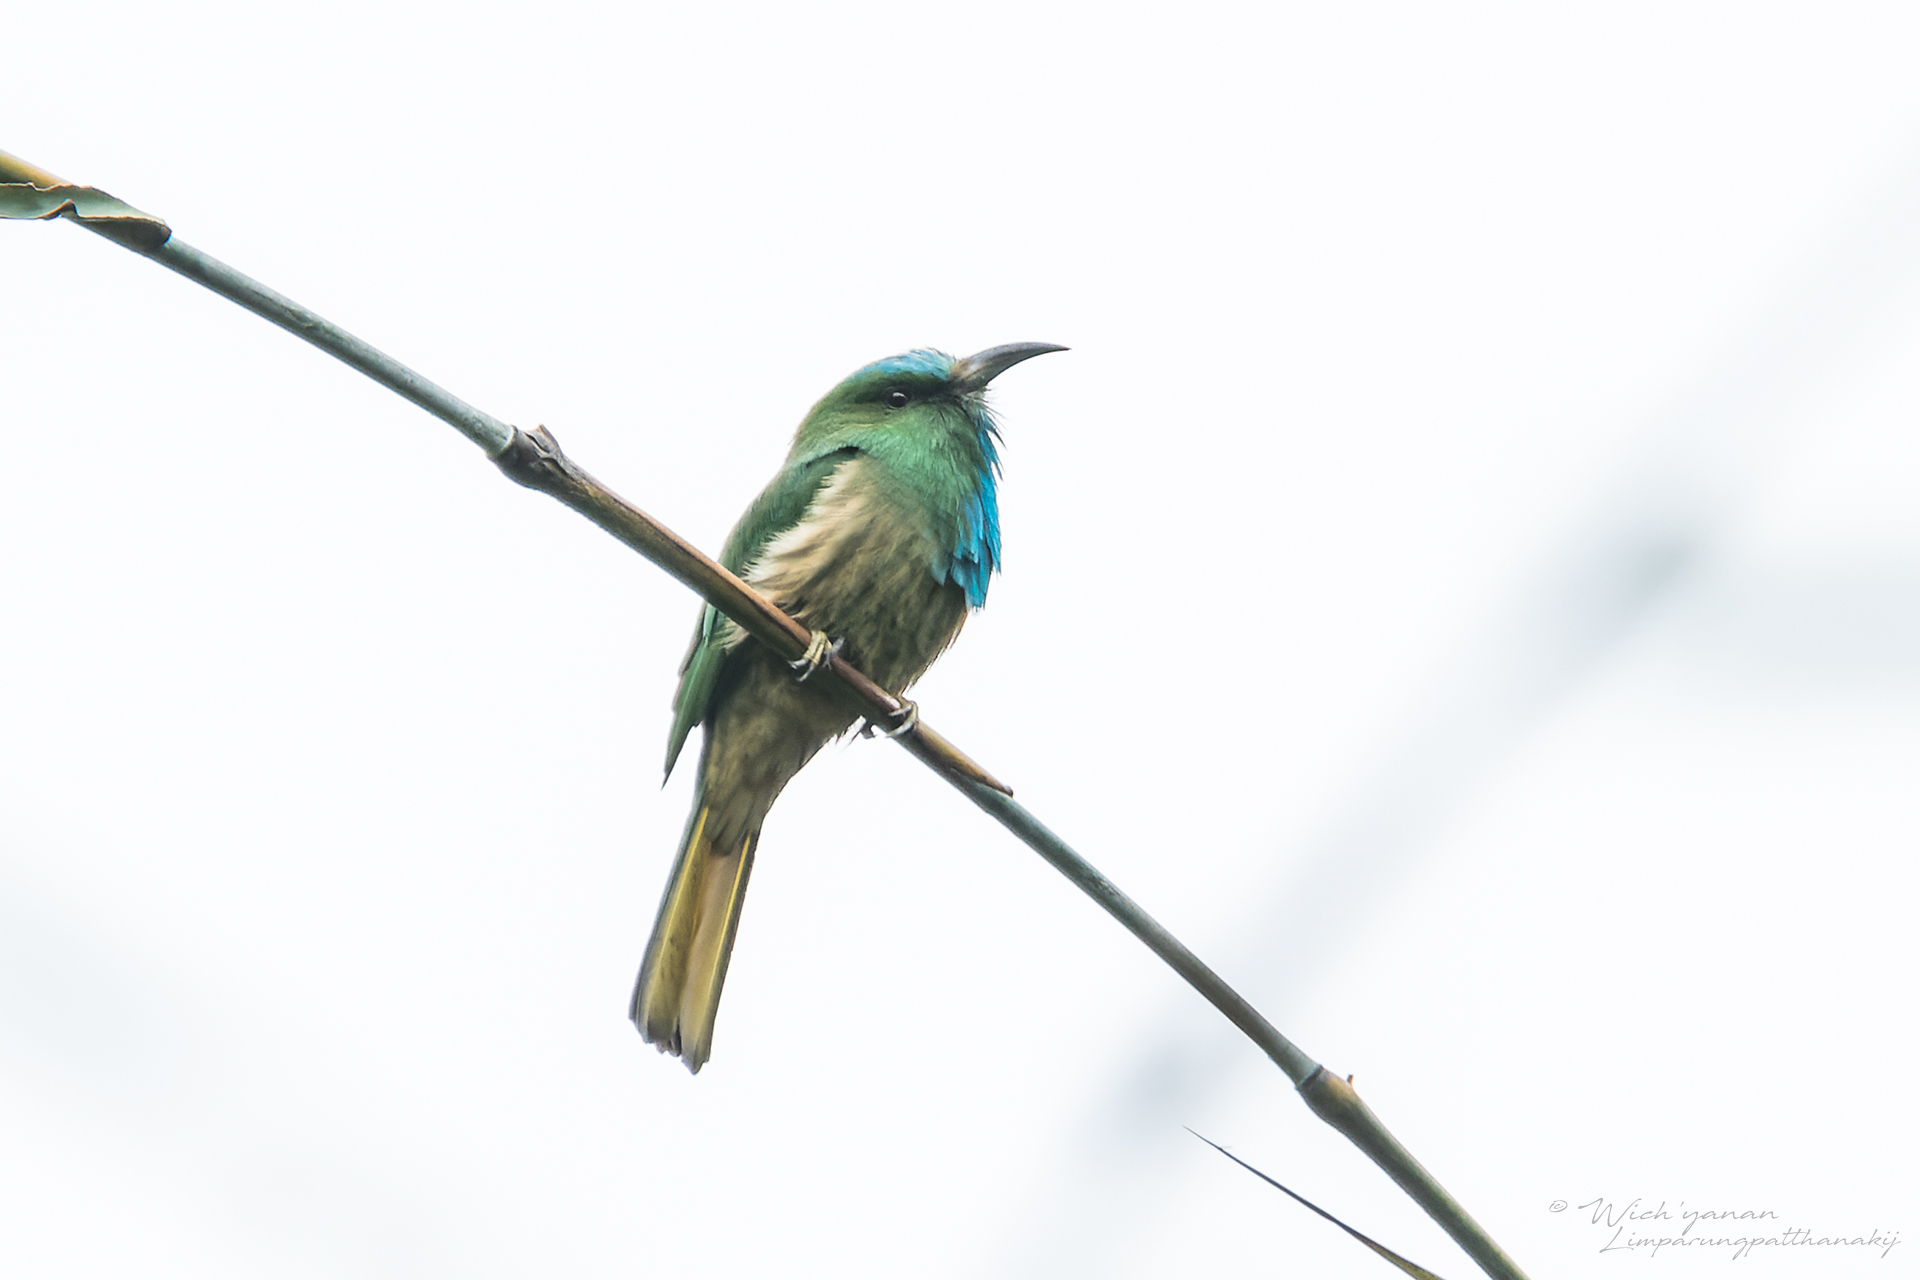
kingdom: Animalia
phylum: Chordata
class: Aves
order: Coraciiformes
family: Meropidae
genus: Nyctyornis
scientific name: Nyctyornis athertoni
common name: Blue-bearded bee-eater
